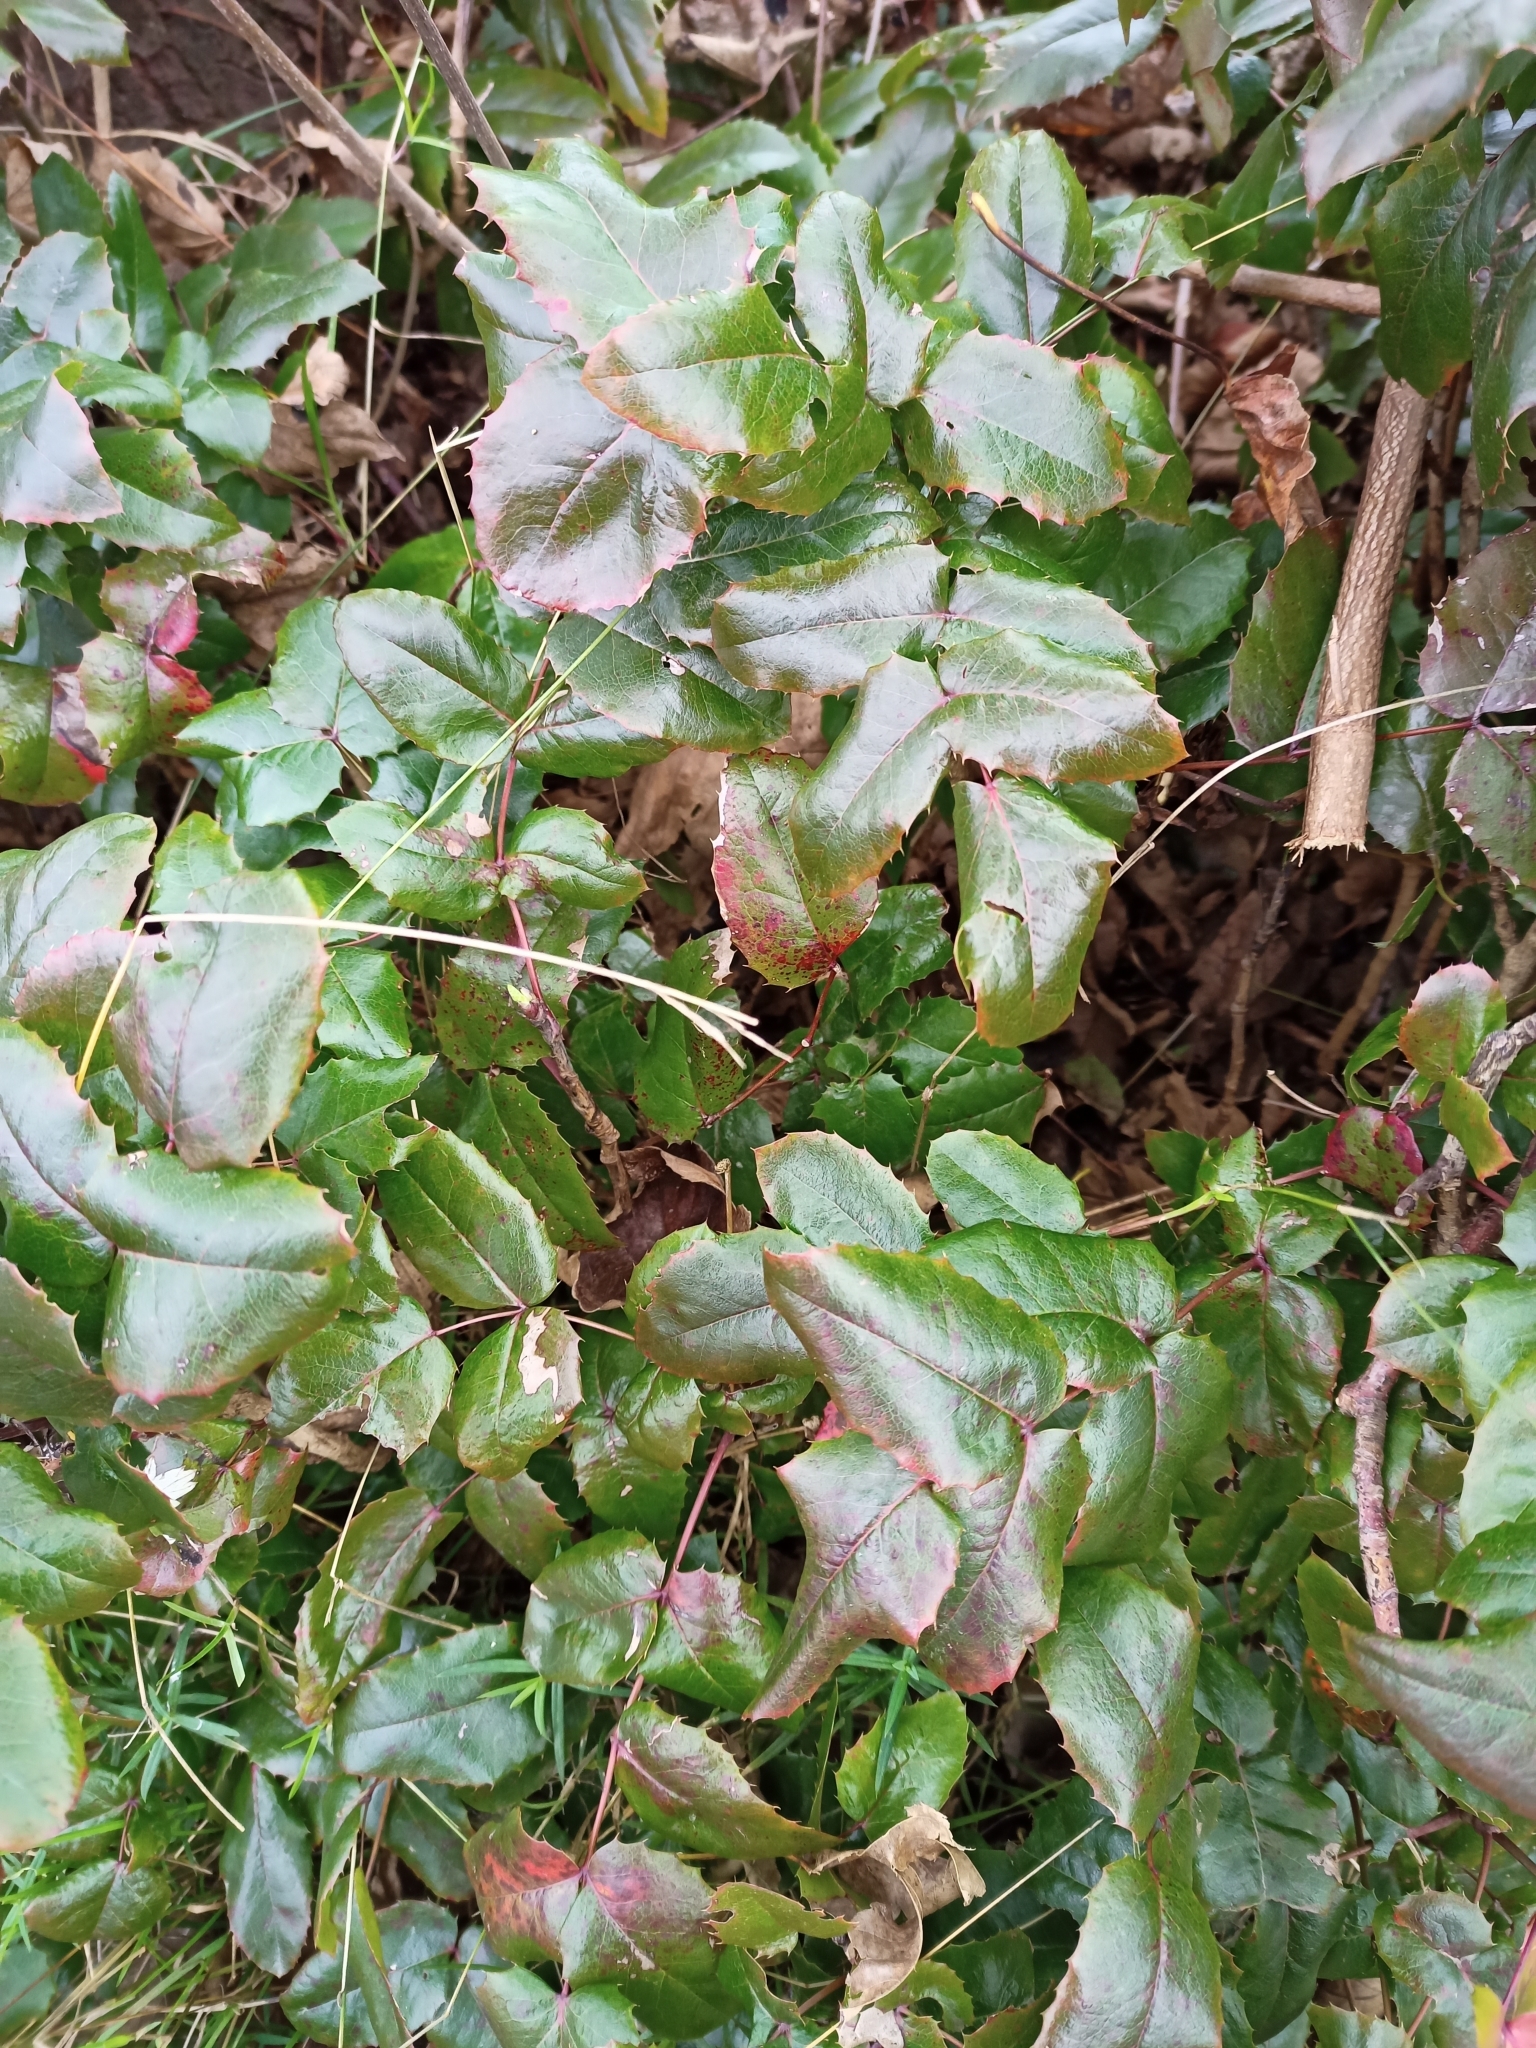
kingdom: Plantae
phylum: Tracheophyta
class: Magnoliopsida
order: Ranunculales
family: Berberidaceae
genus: Mahonia
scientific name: Mahonia aquifolium
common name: Oregon-grape
